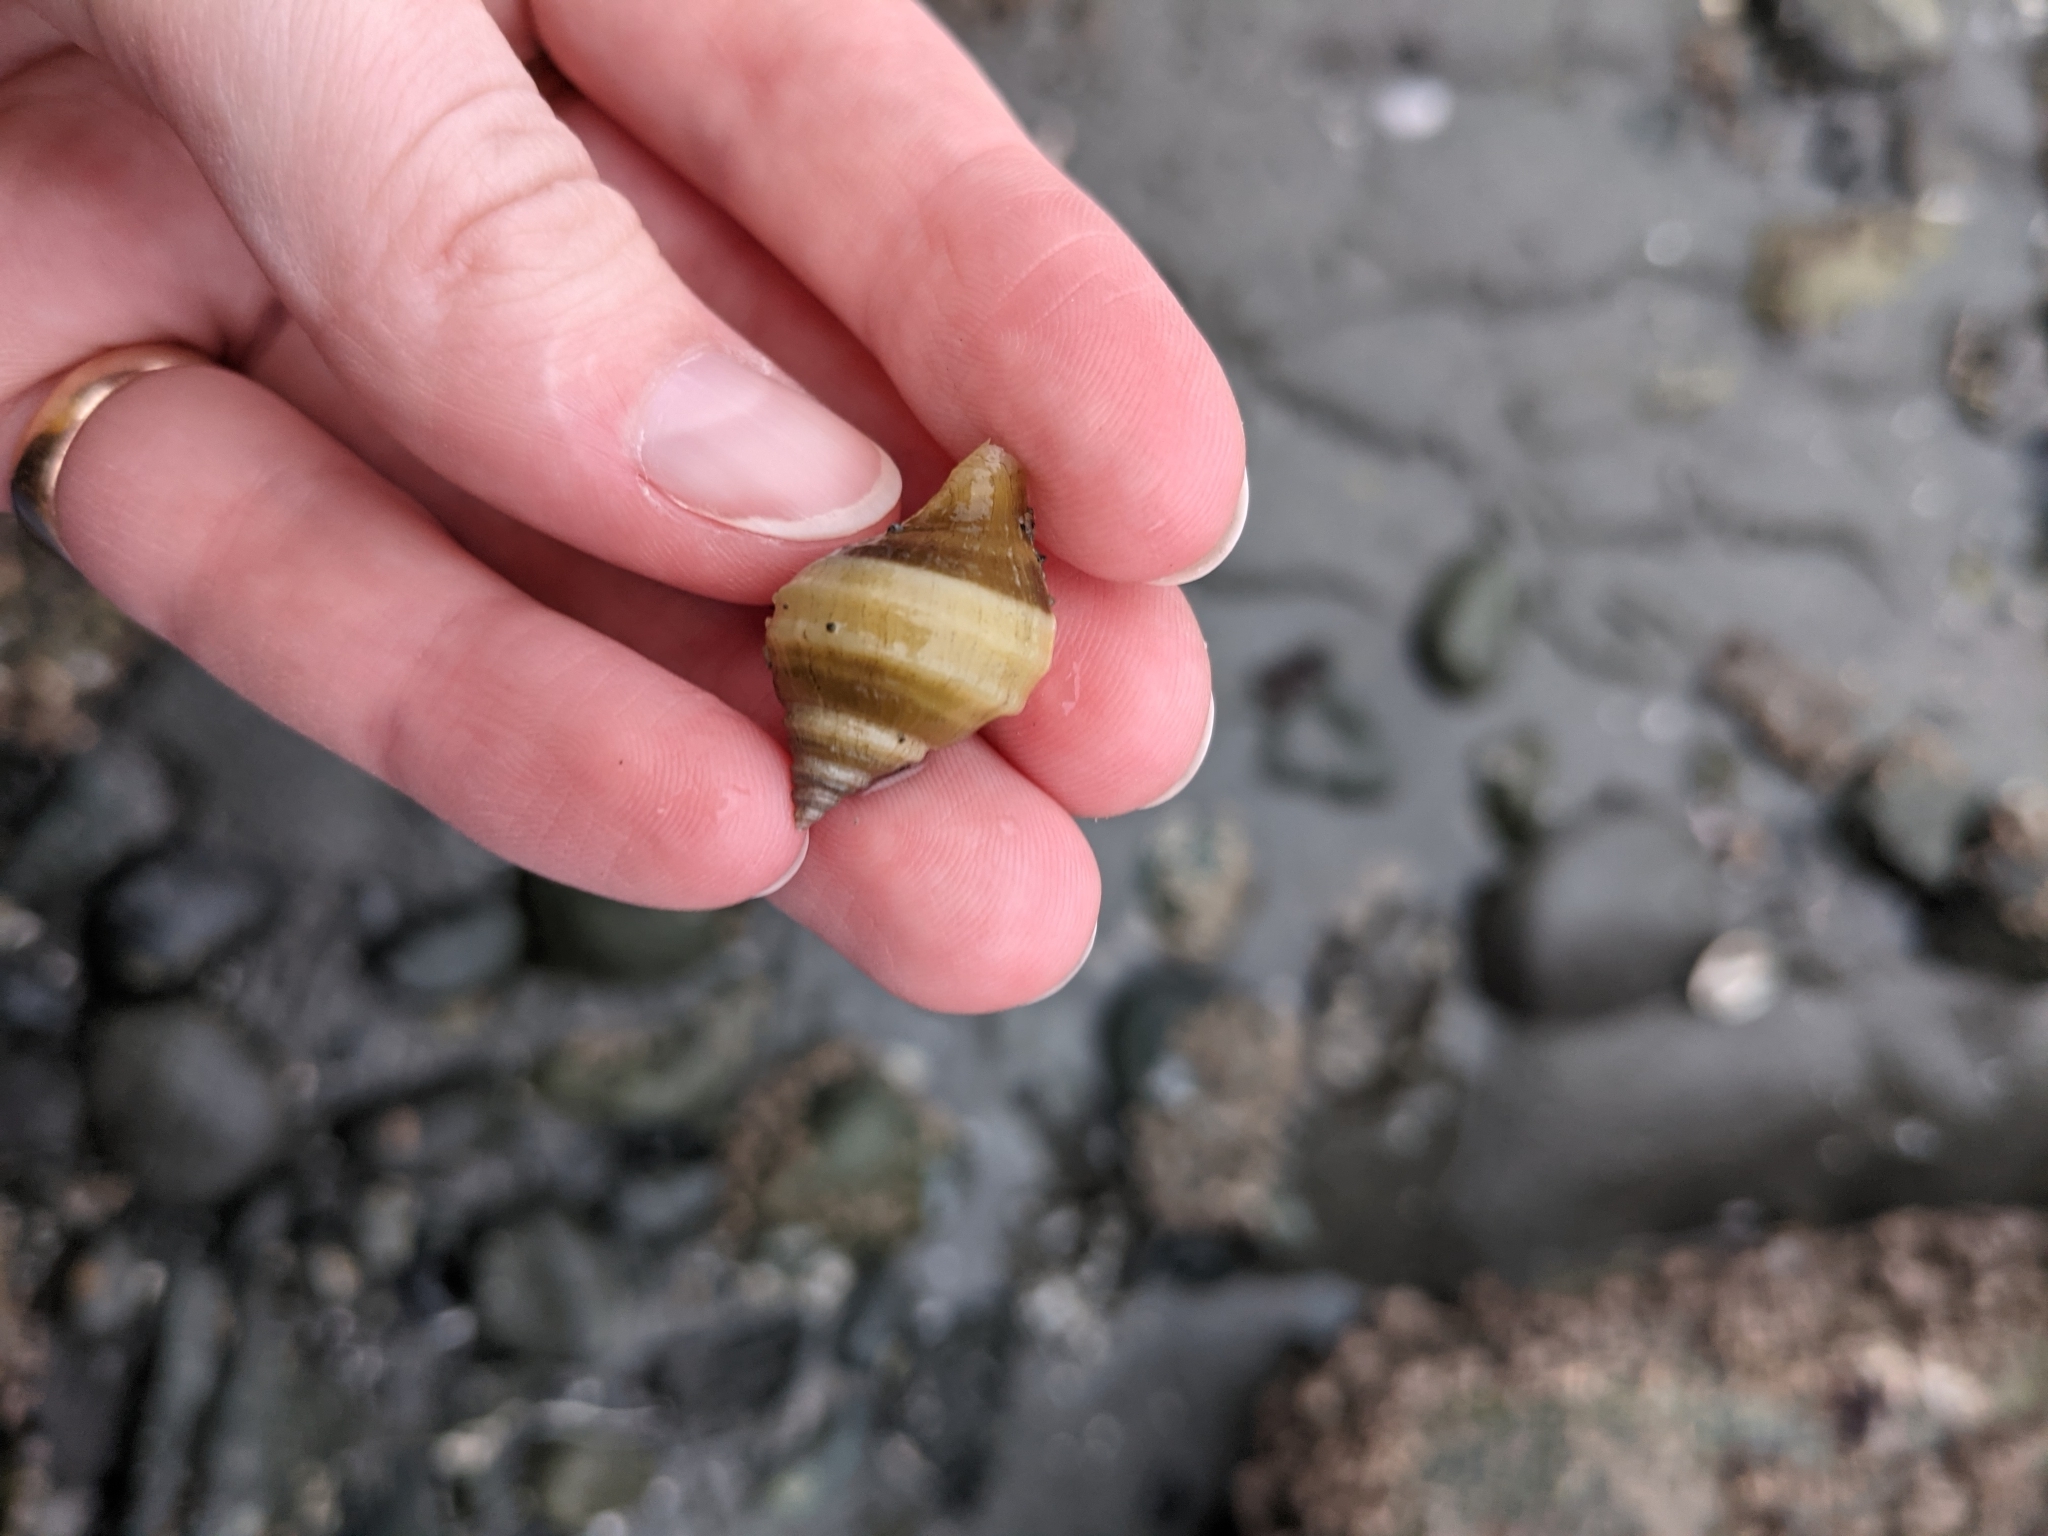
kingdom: Animalia
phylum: Mollusca
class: Gastropoda
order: Neogastropoda
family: Muricidae
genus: Nucella
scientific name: Nucella lamellosa
